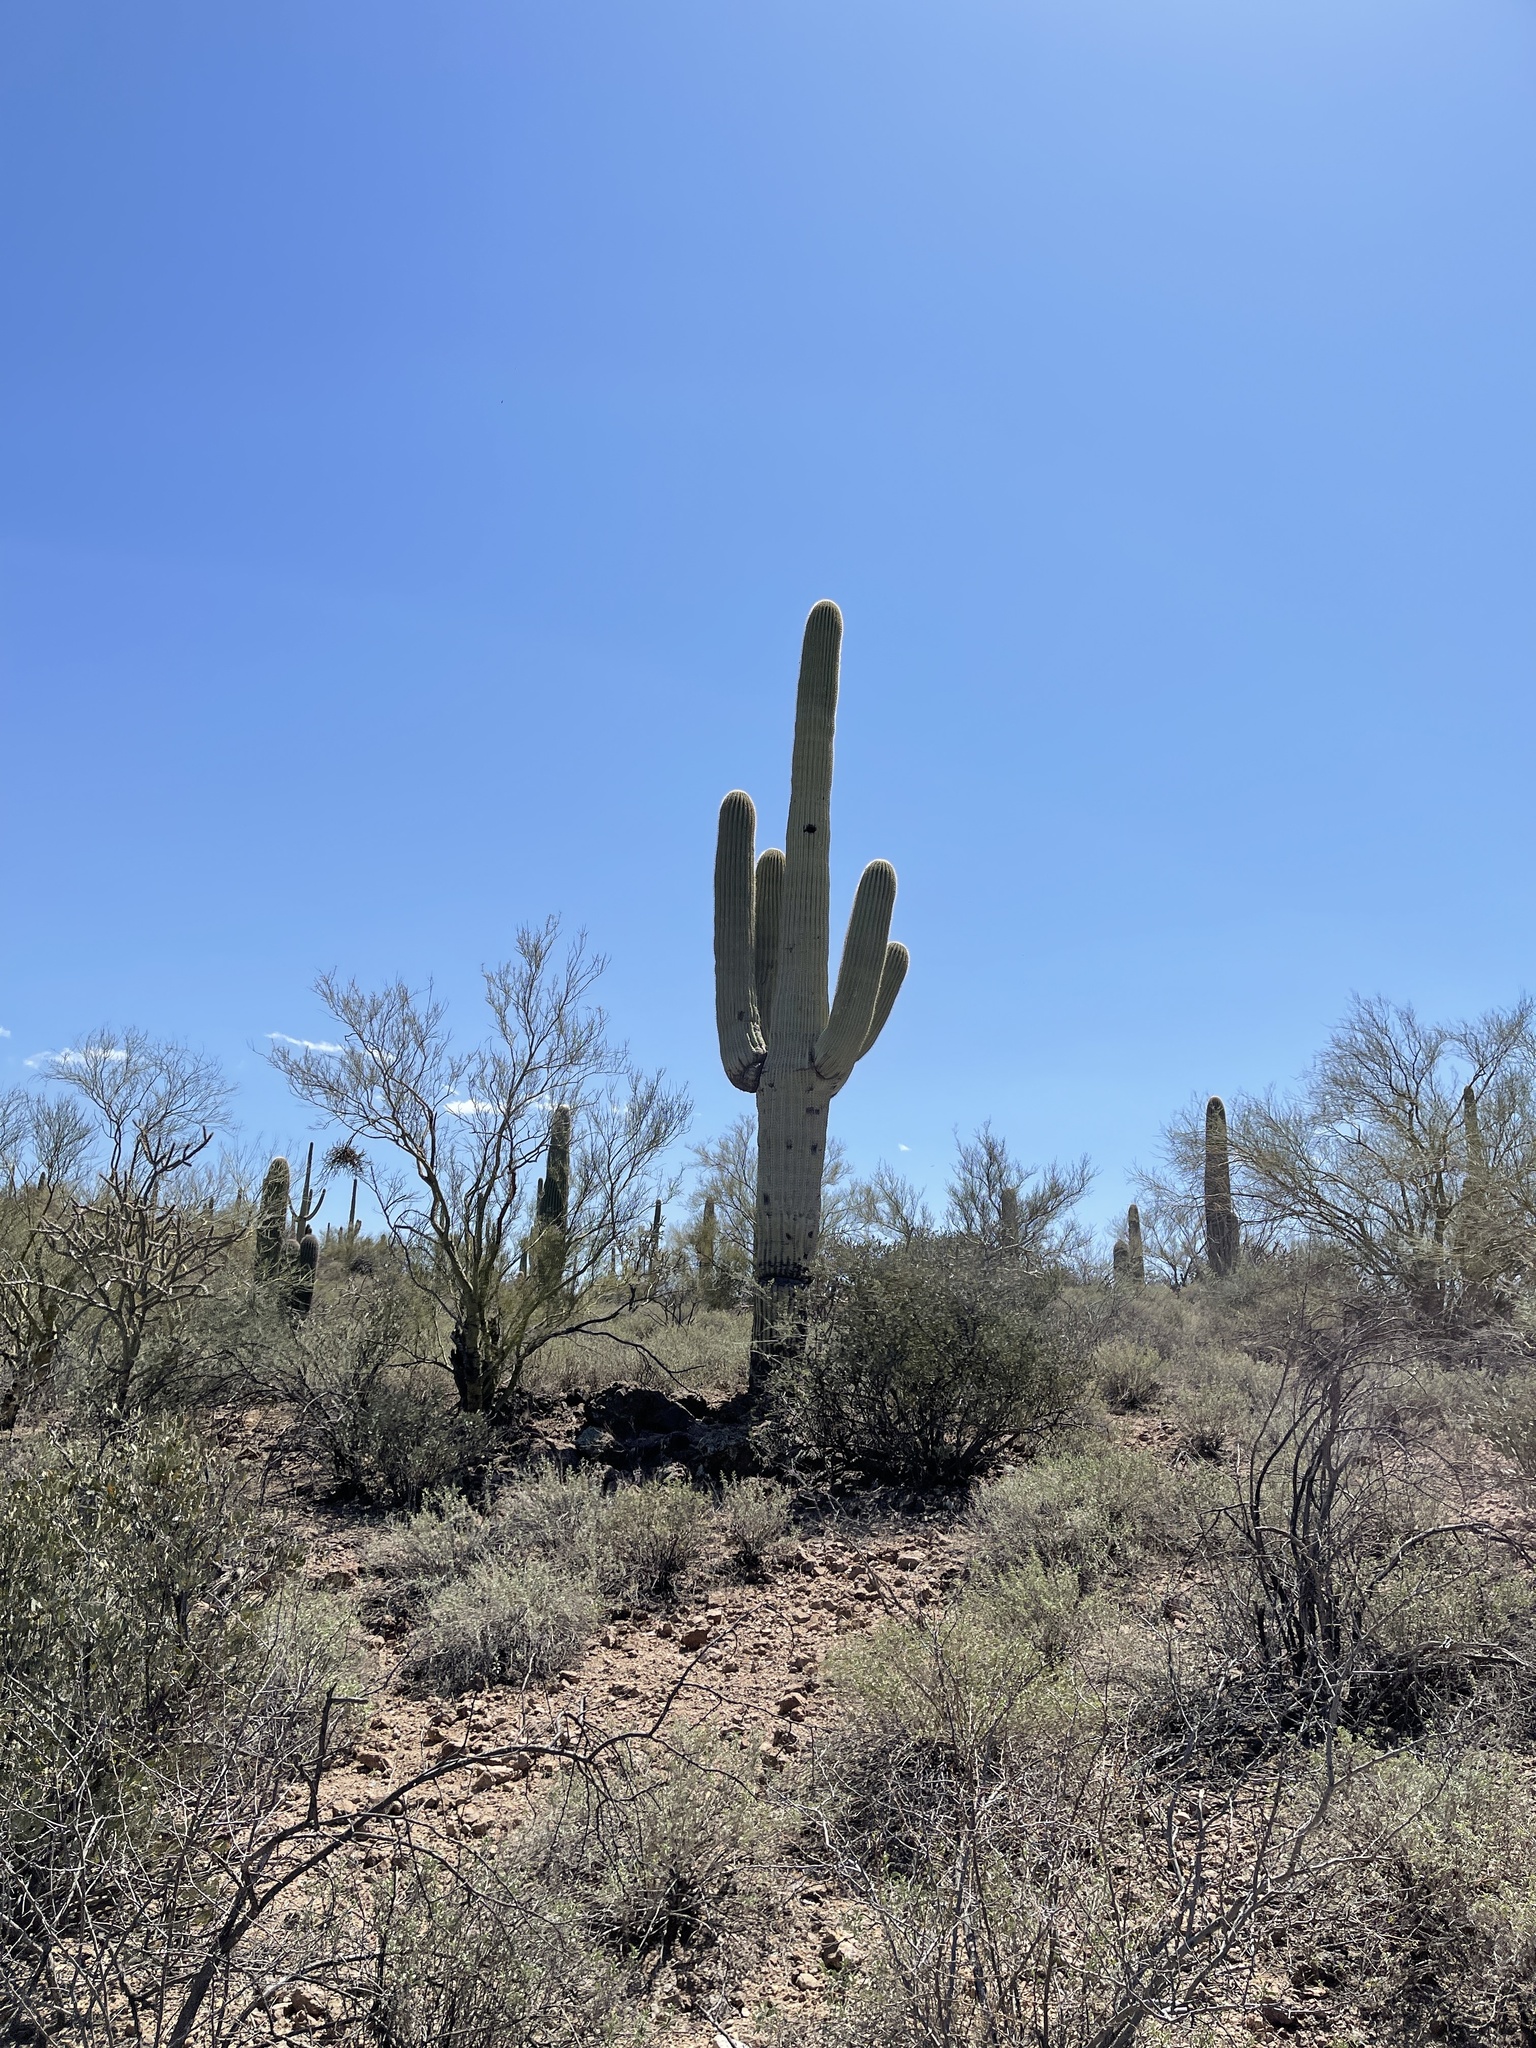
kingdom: Plantae
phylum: Tracheophyta
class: Magnoliopsida
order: Caryophyllales
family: Cactaceae
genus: Carnegiea
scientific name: Carnegiea gigantea
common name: Saguaro
